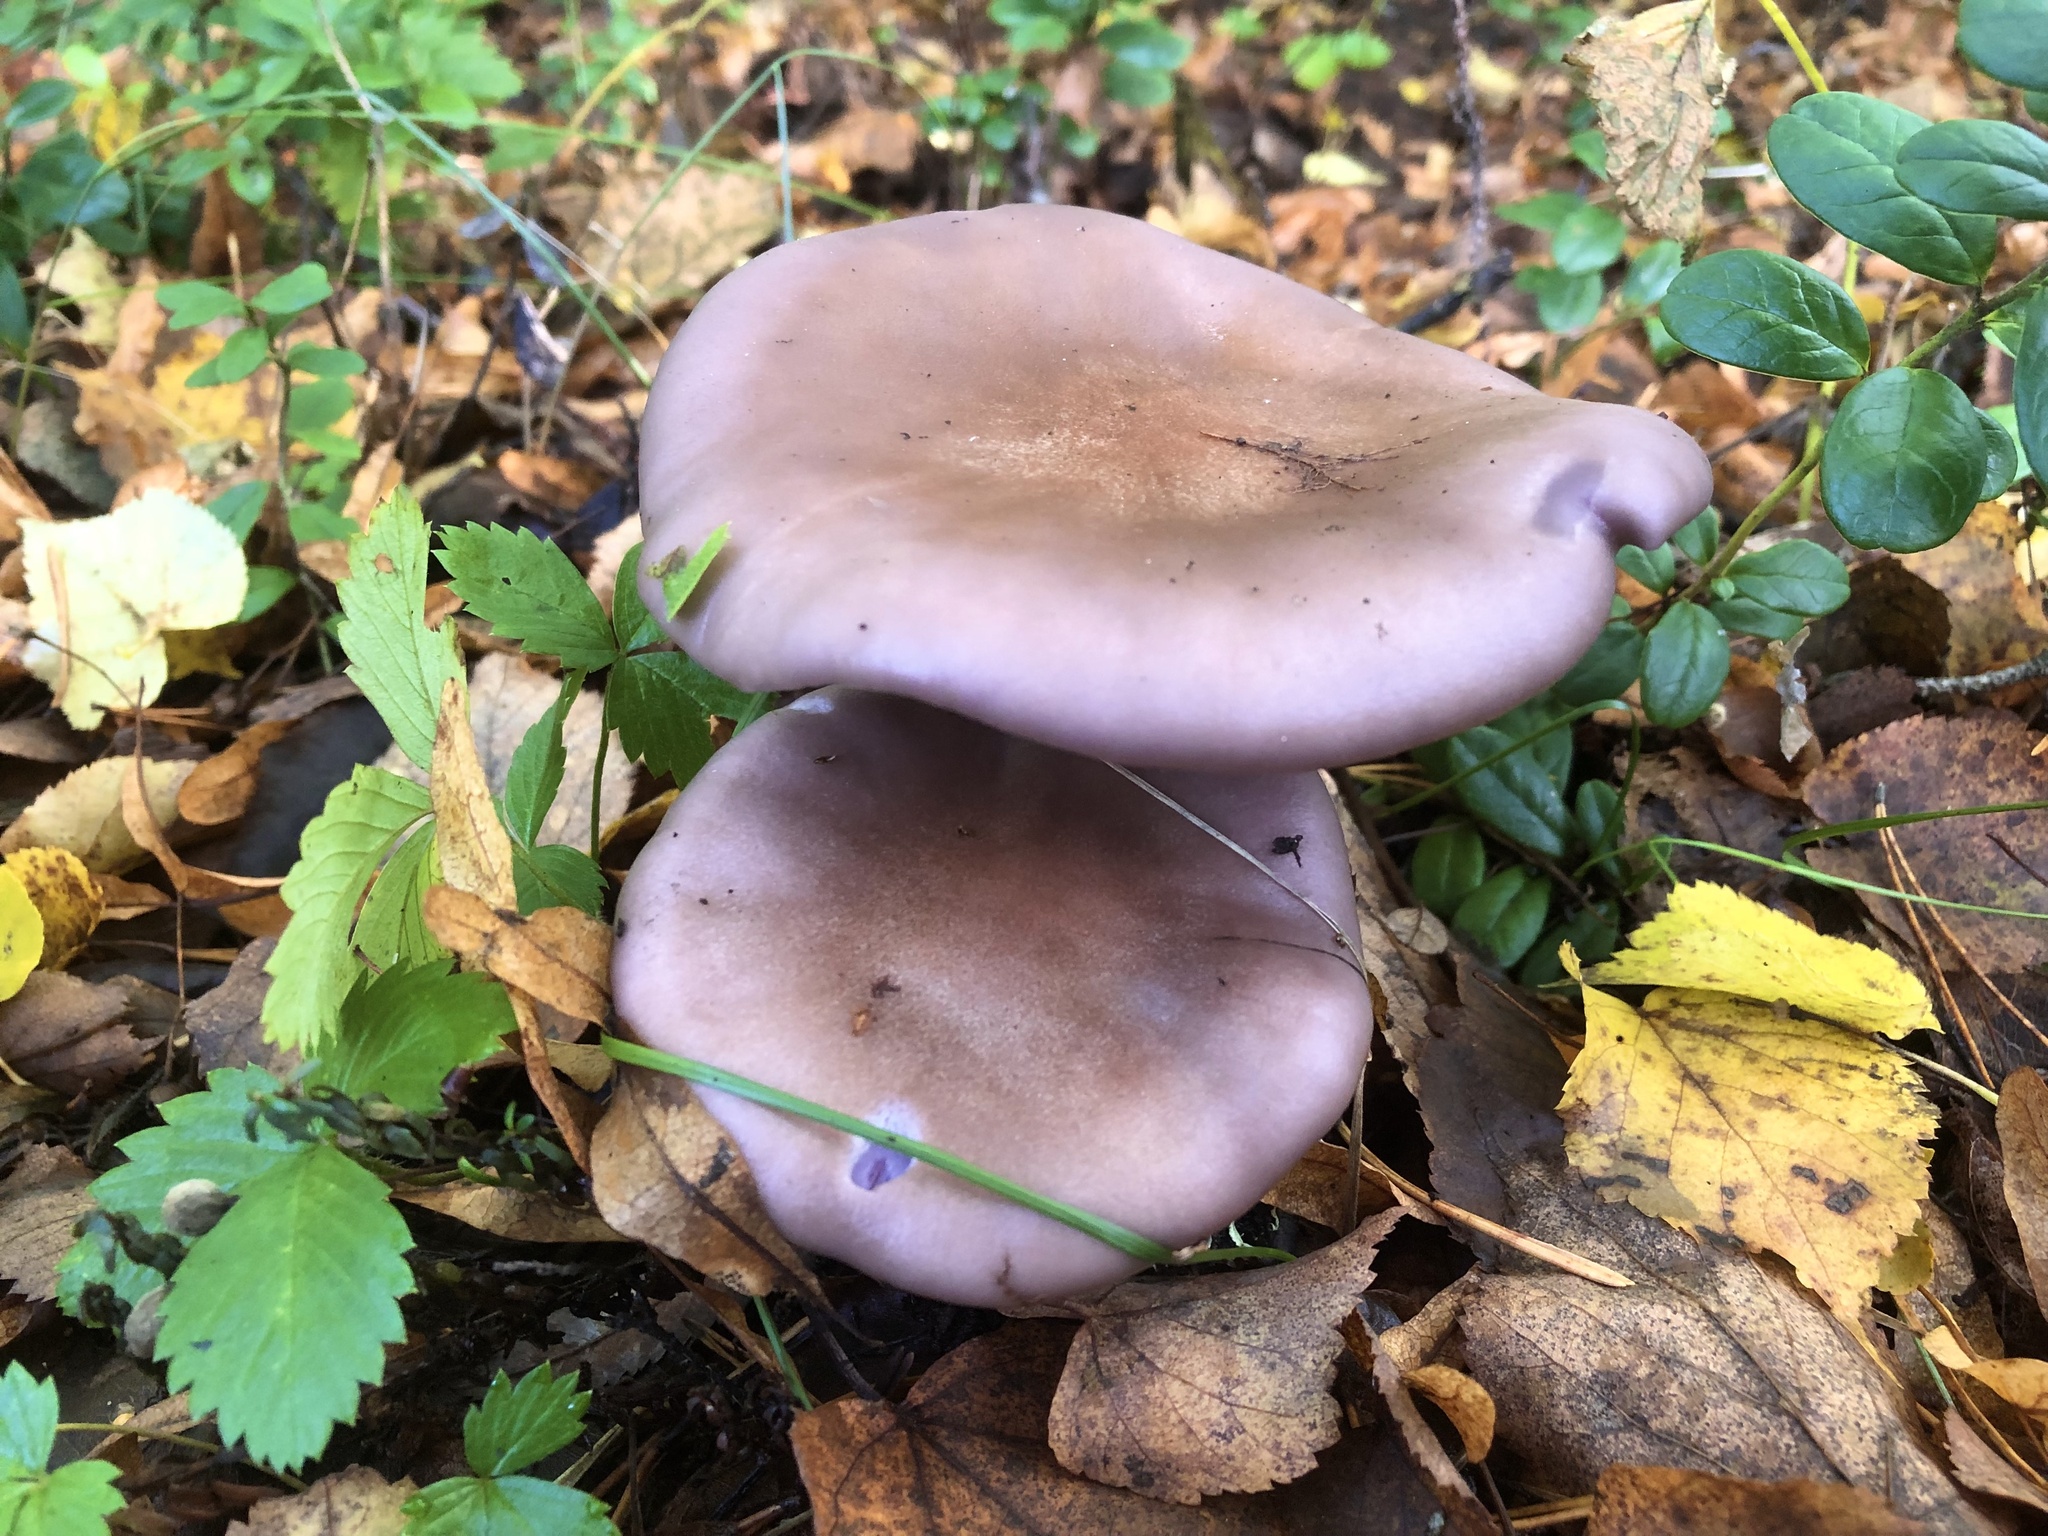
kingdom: Fungi
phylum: Basidiomycota
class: Agaricomycetes
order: Agaricales
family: Tricholomataceae
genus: Collybia
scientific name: Collybia
